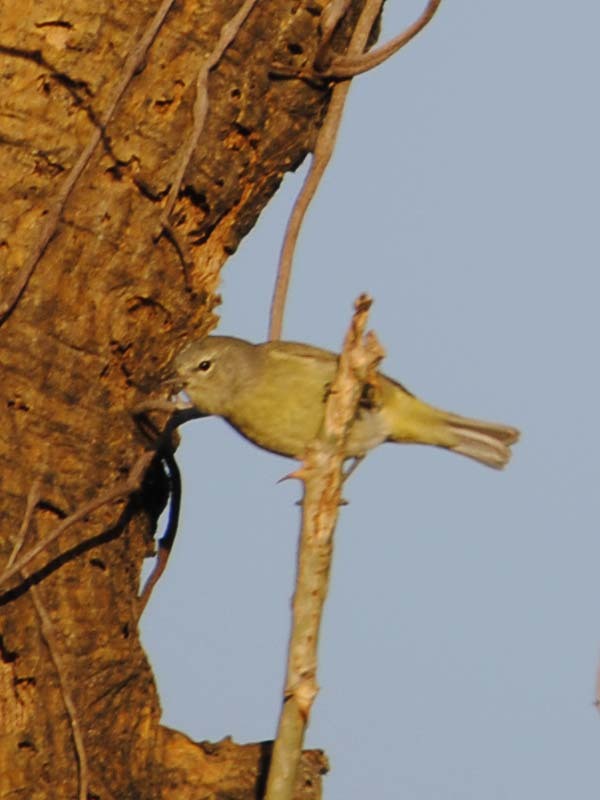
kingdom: Animalia
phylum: Chordata
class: Aves
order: Passeriformes
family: Parulidae
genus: Leiothlypis
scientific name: Leiothlypis celata
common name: Orange-crowned warbler
